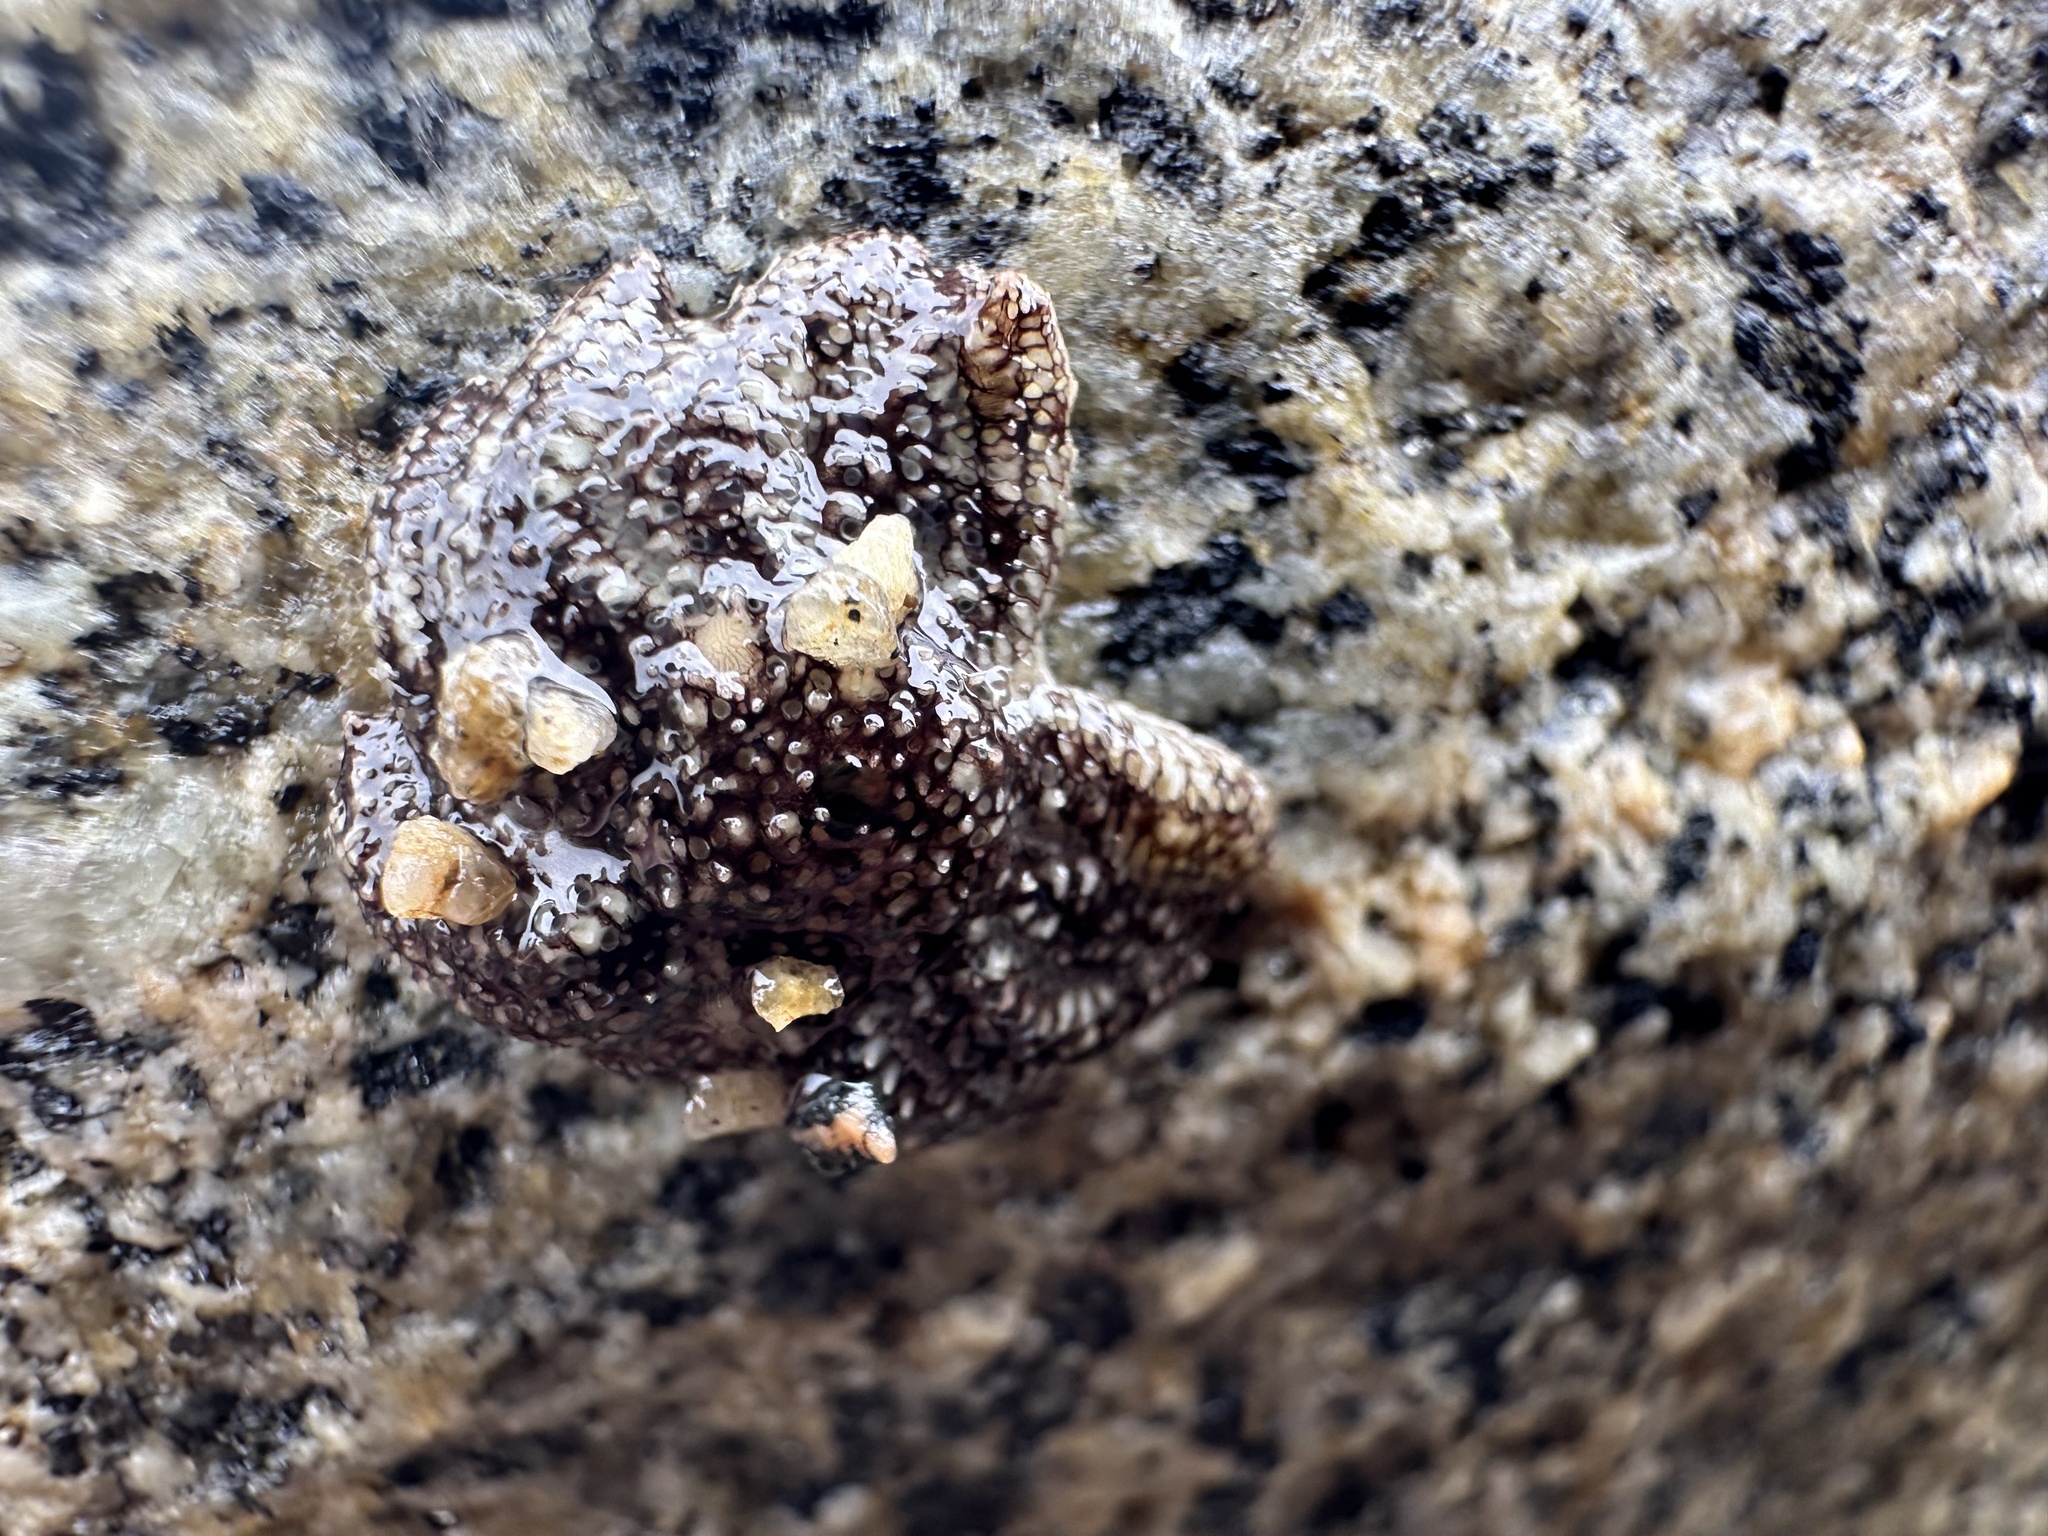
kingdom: Animalia
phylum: Echinodermata
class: Asteroidea
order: Forcipulatida
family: Heliasteridae
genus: Heliaster
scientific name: Heliaster helianthus
